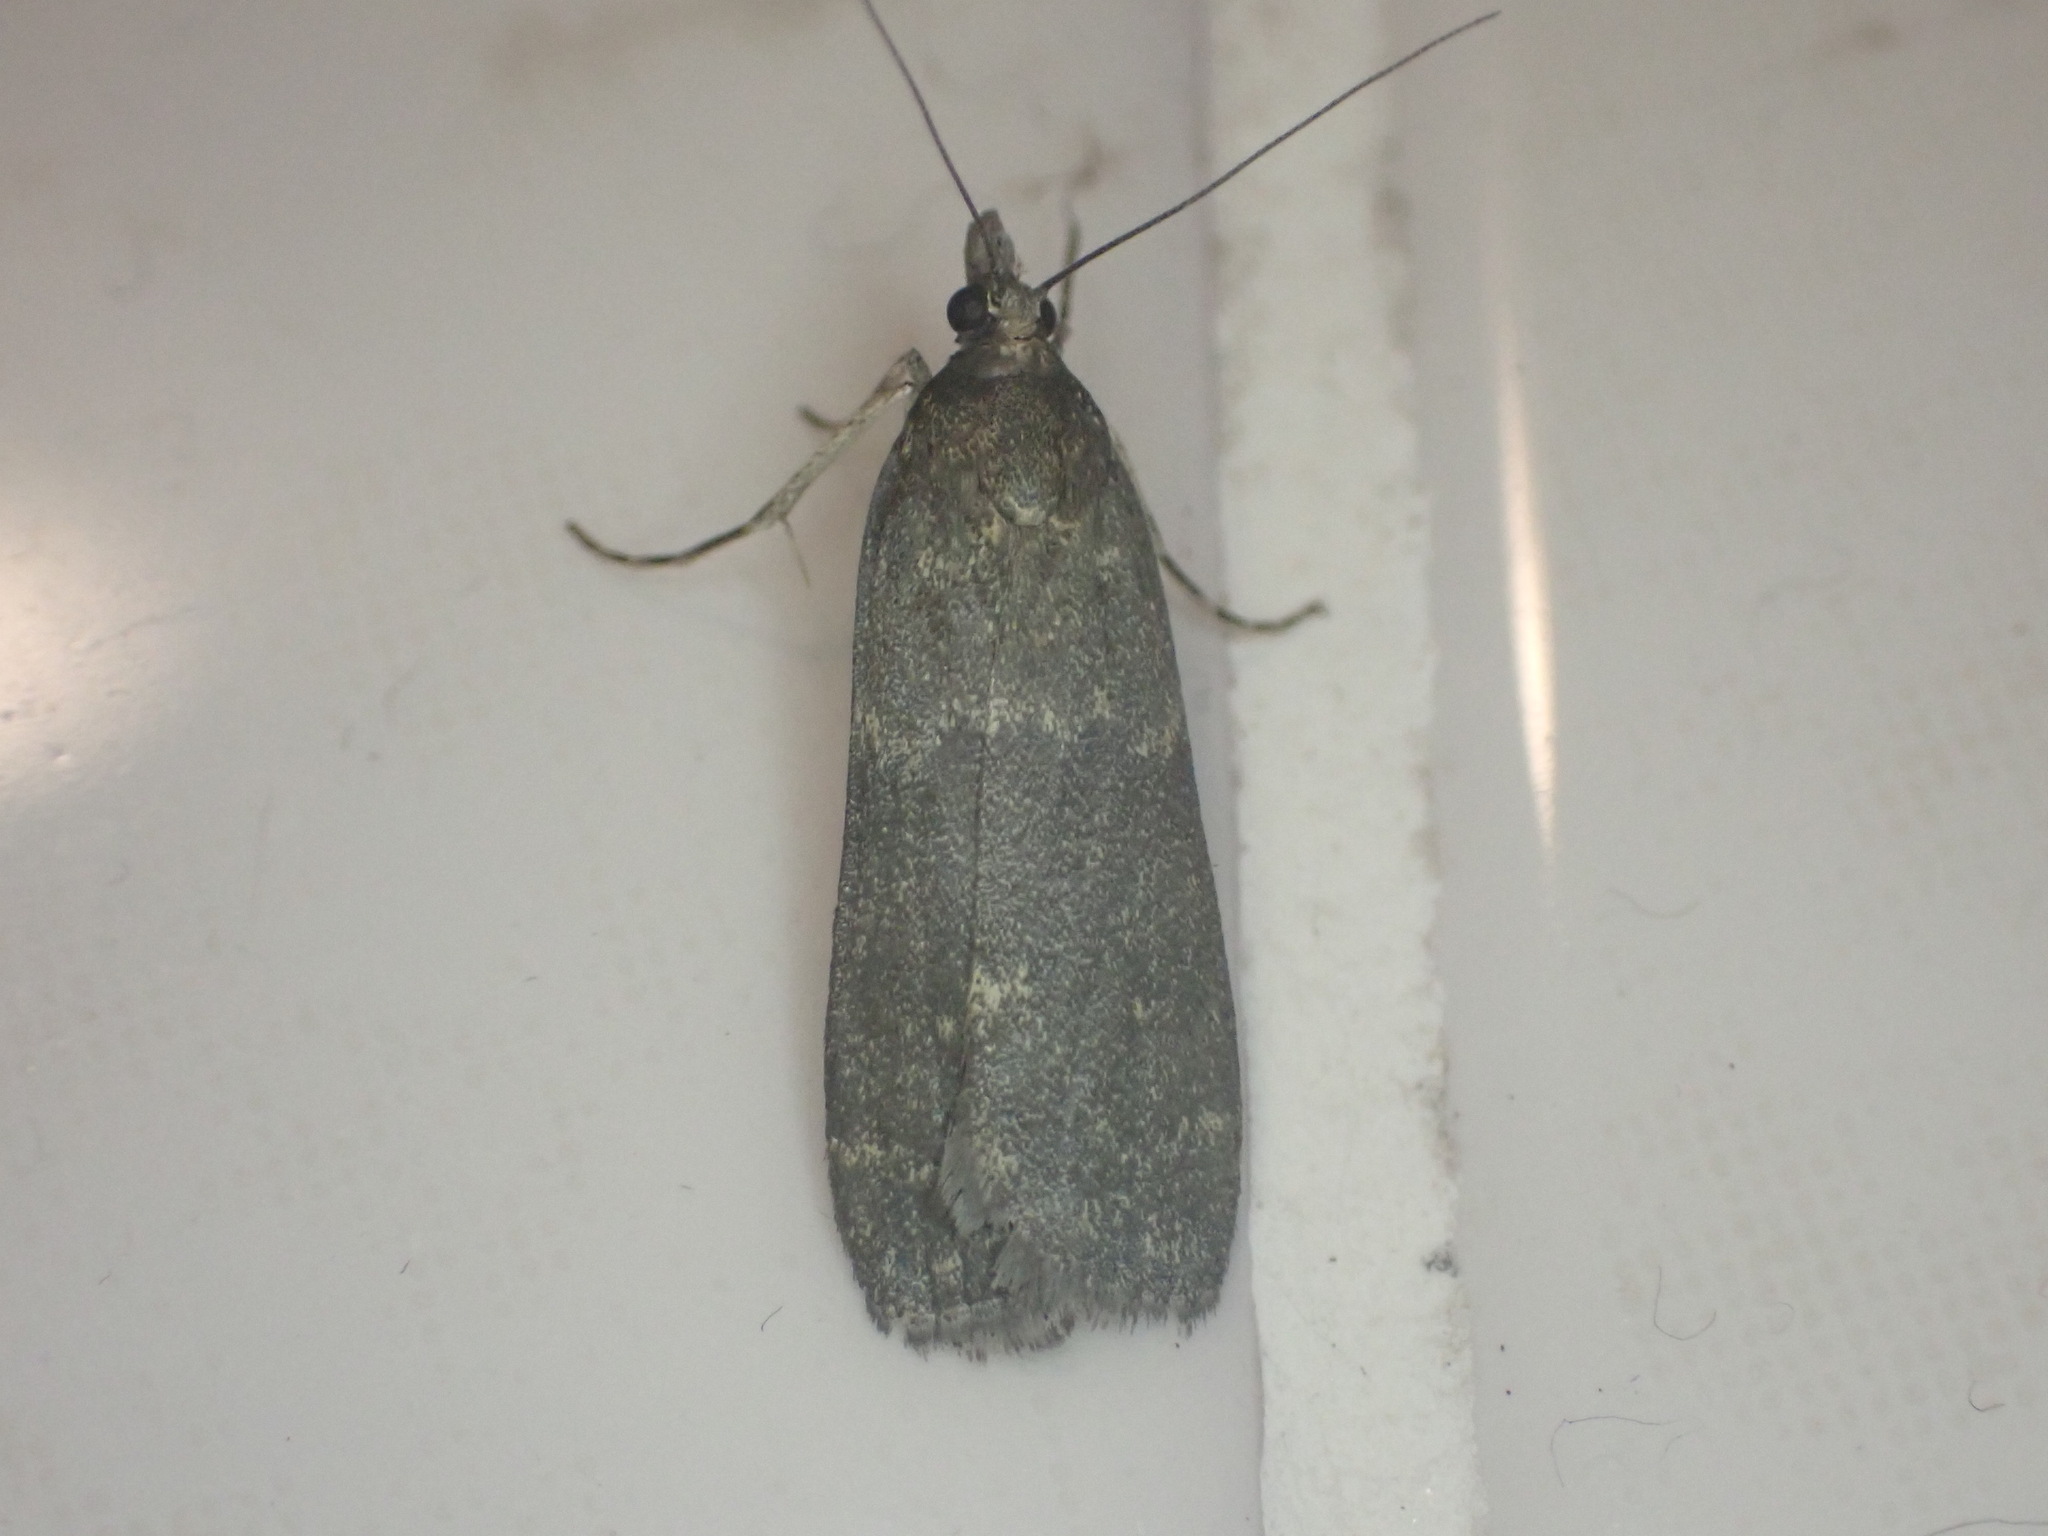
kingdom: Animalia
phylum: Arthropoda
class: Insecta
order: Lepidoptera
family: Crambidae
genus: Eudonia
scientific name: Eudonia cataxesta
